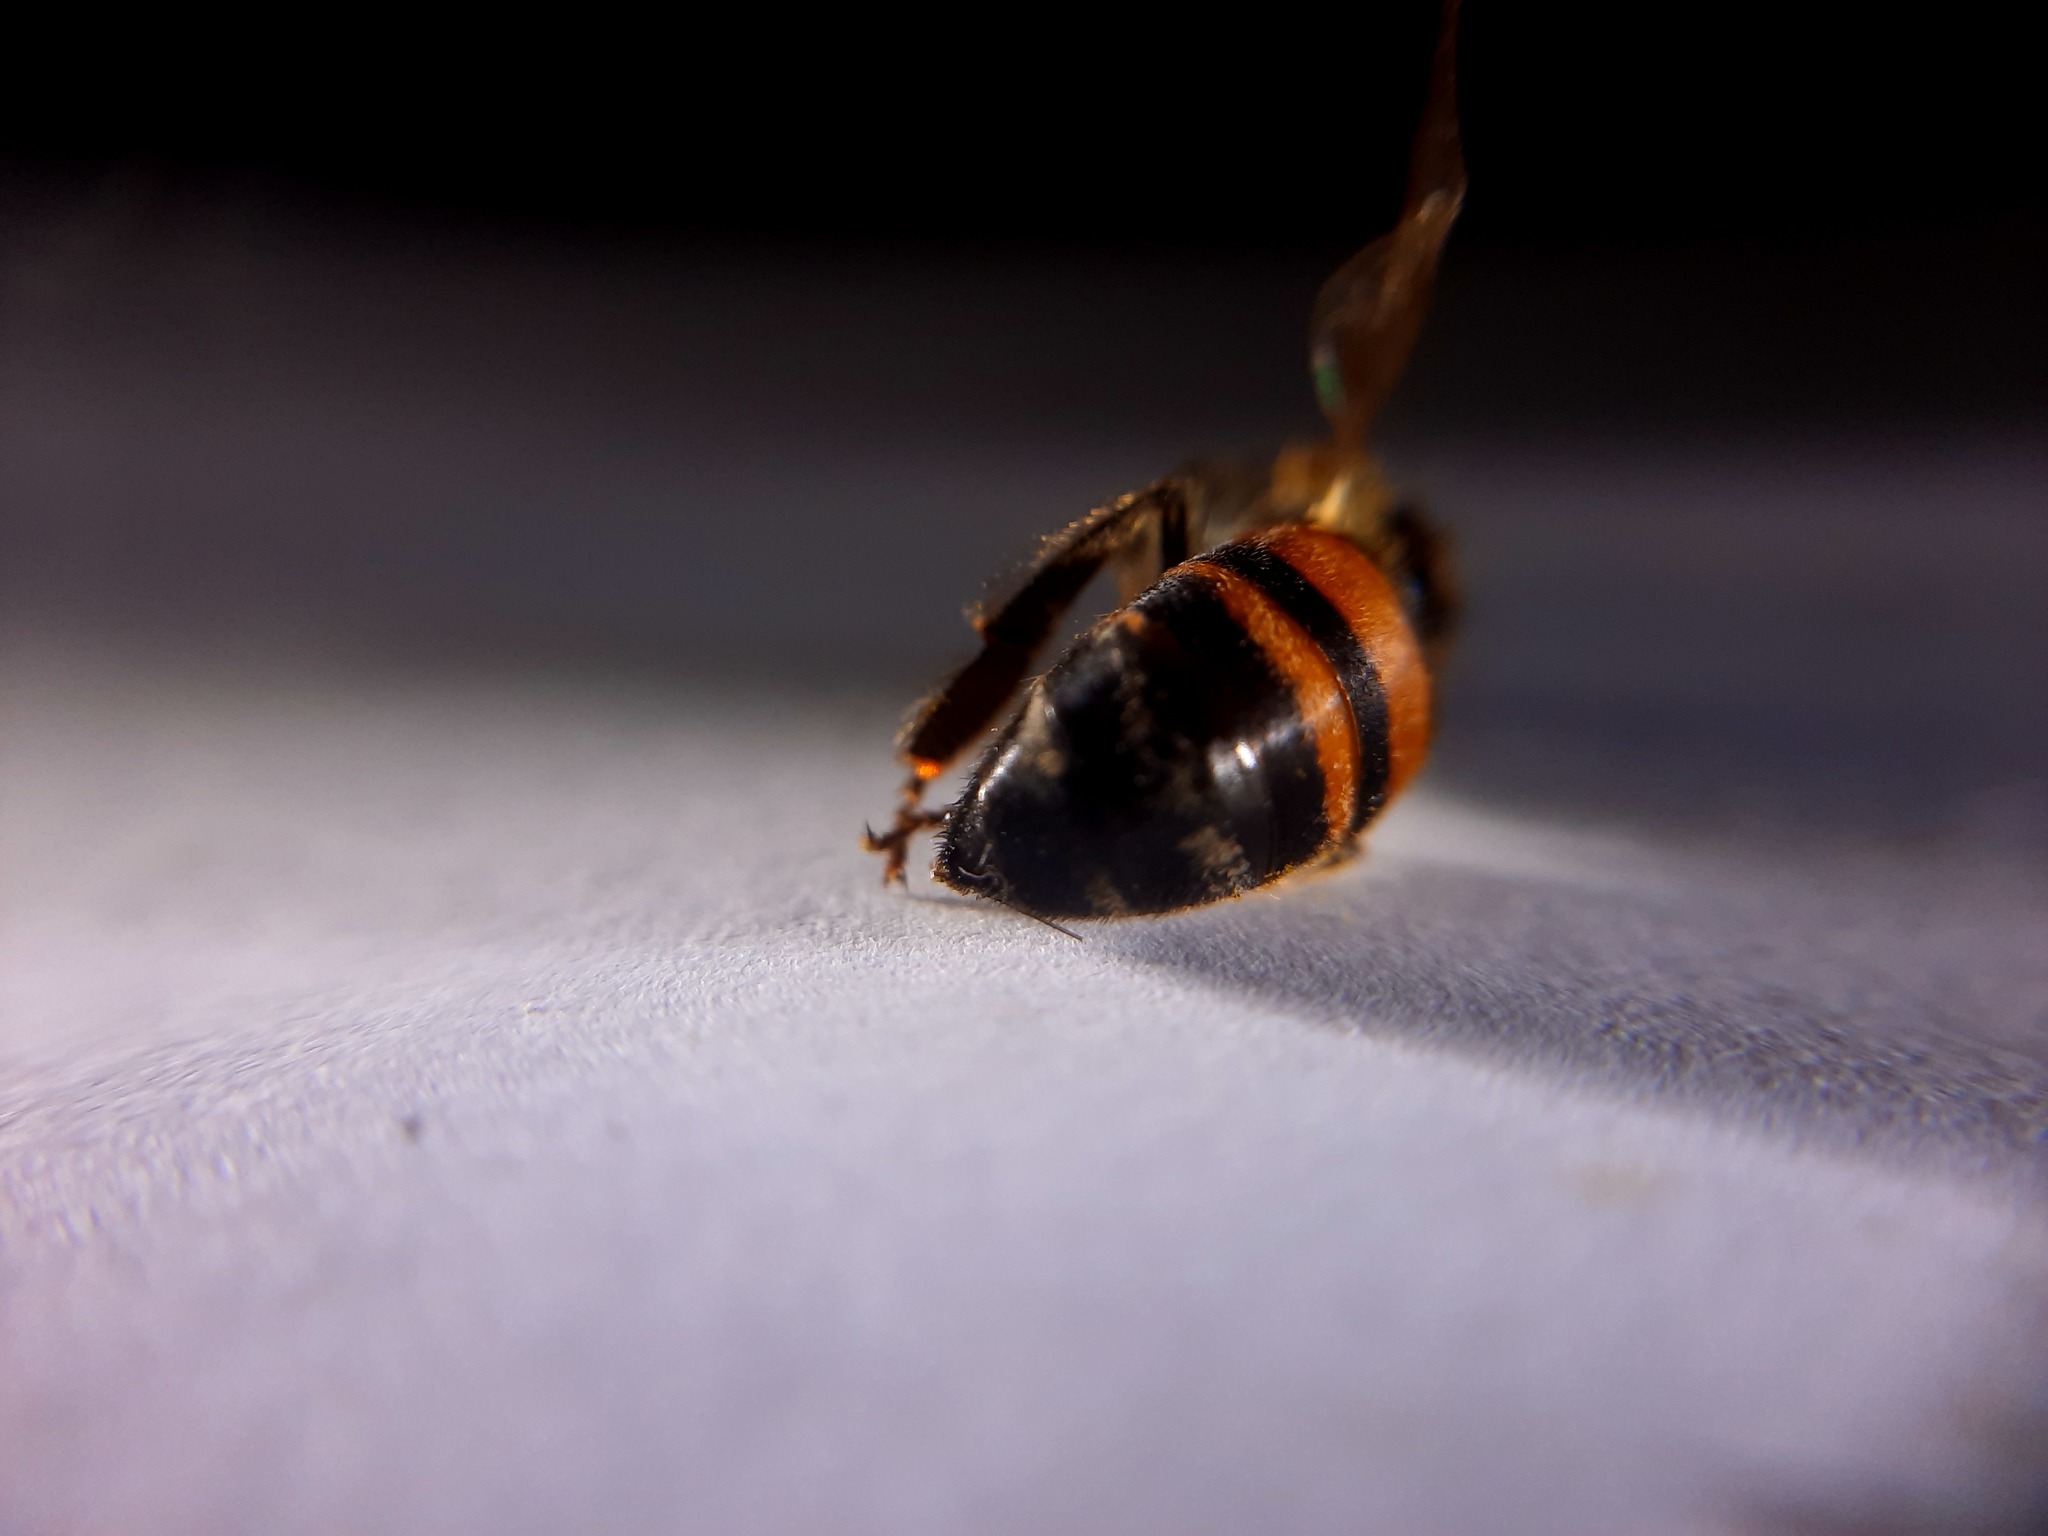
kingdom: Animalia
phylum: Arthropoda
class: Insecta
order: Hymenoptera
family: Apidae
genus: Apis
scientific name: Apis mellifera
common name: Honey bee
